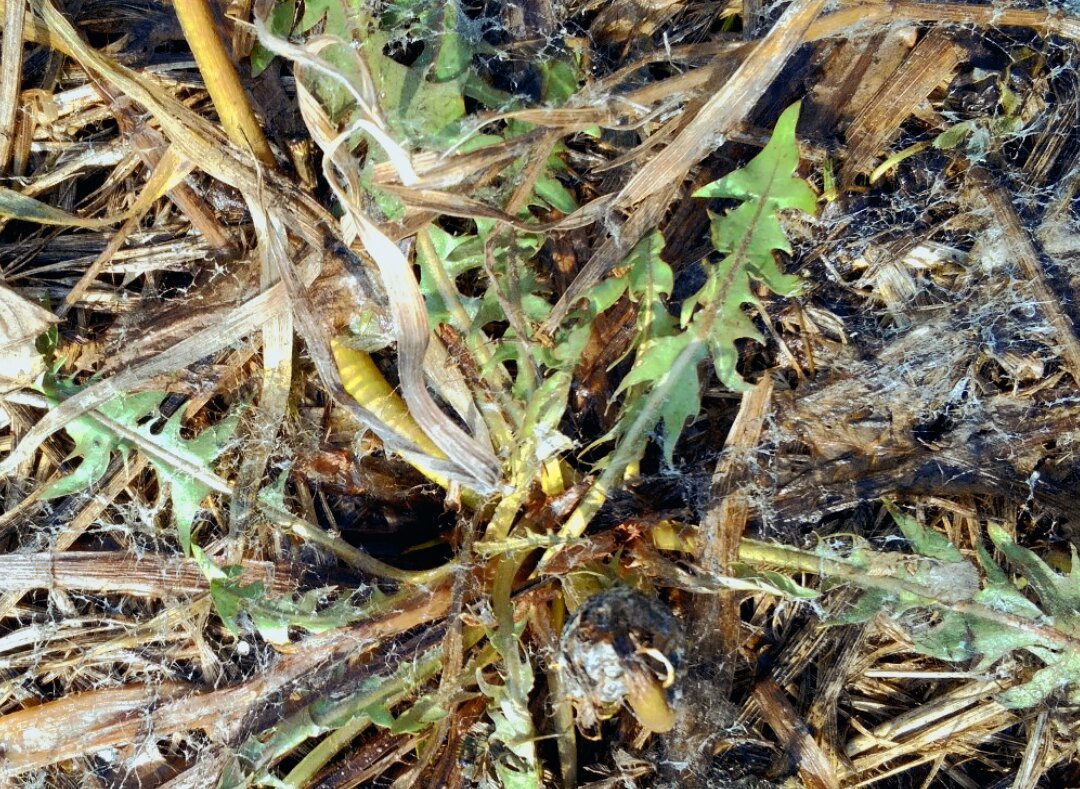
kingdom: Plantae
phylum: Tracheophyta
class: Magnoliopsida
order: Asterales
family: Asteraceae
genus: Taraxacum
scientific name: Taraxacum officinale
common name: Common dandelion
